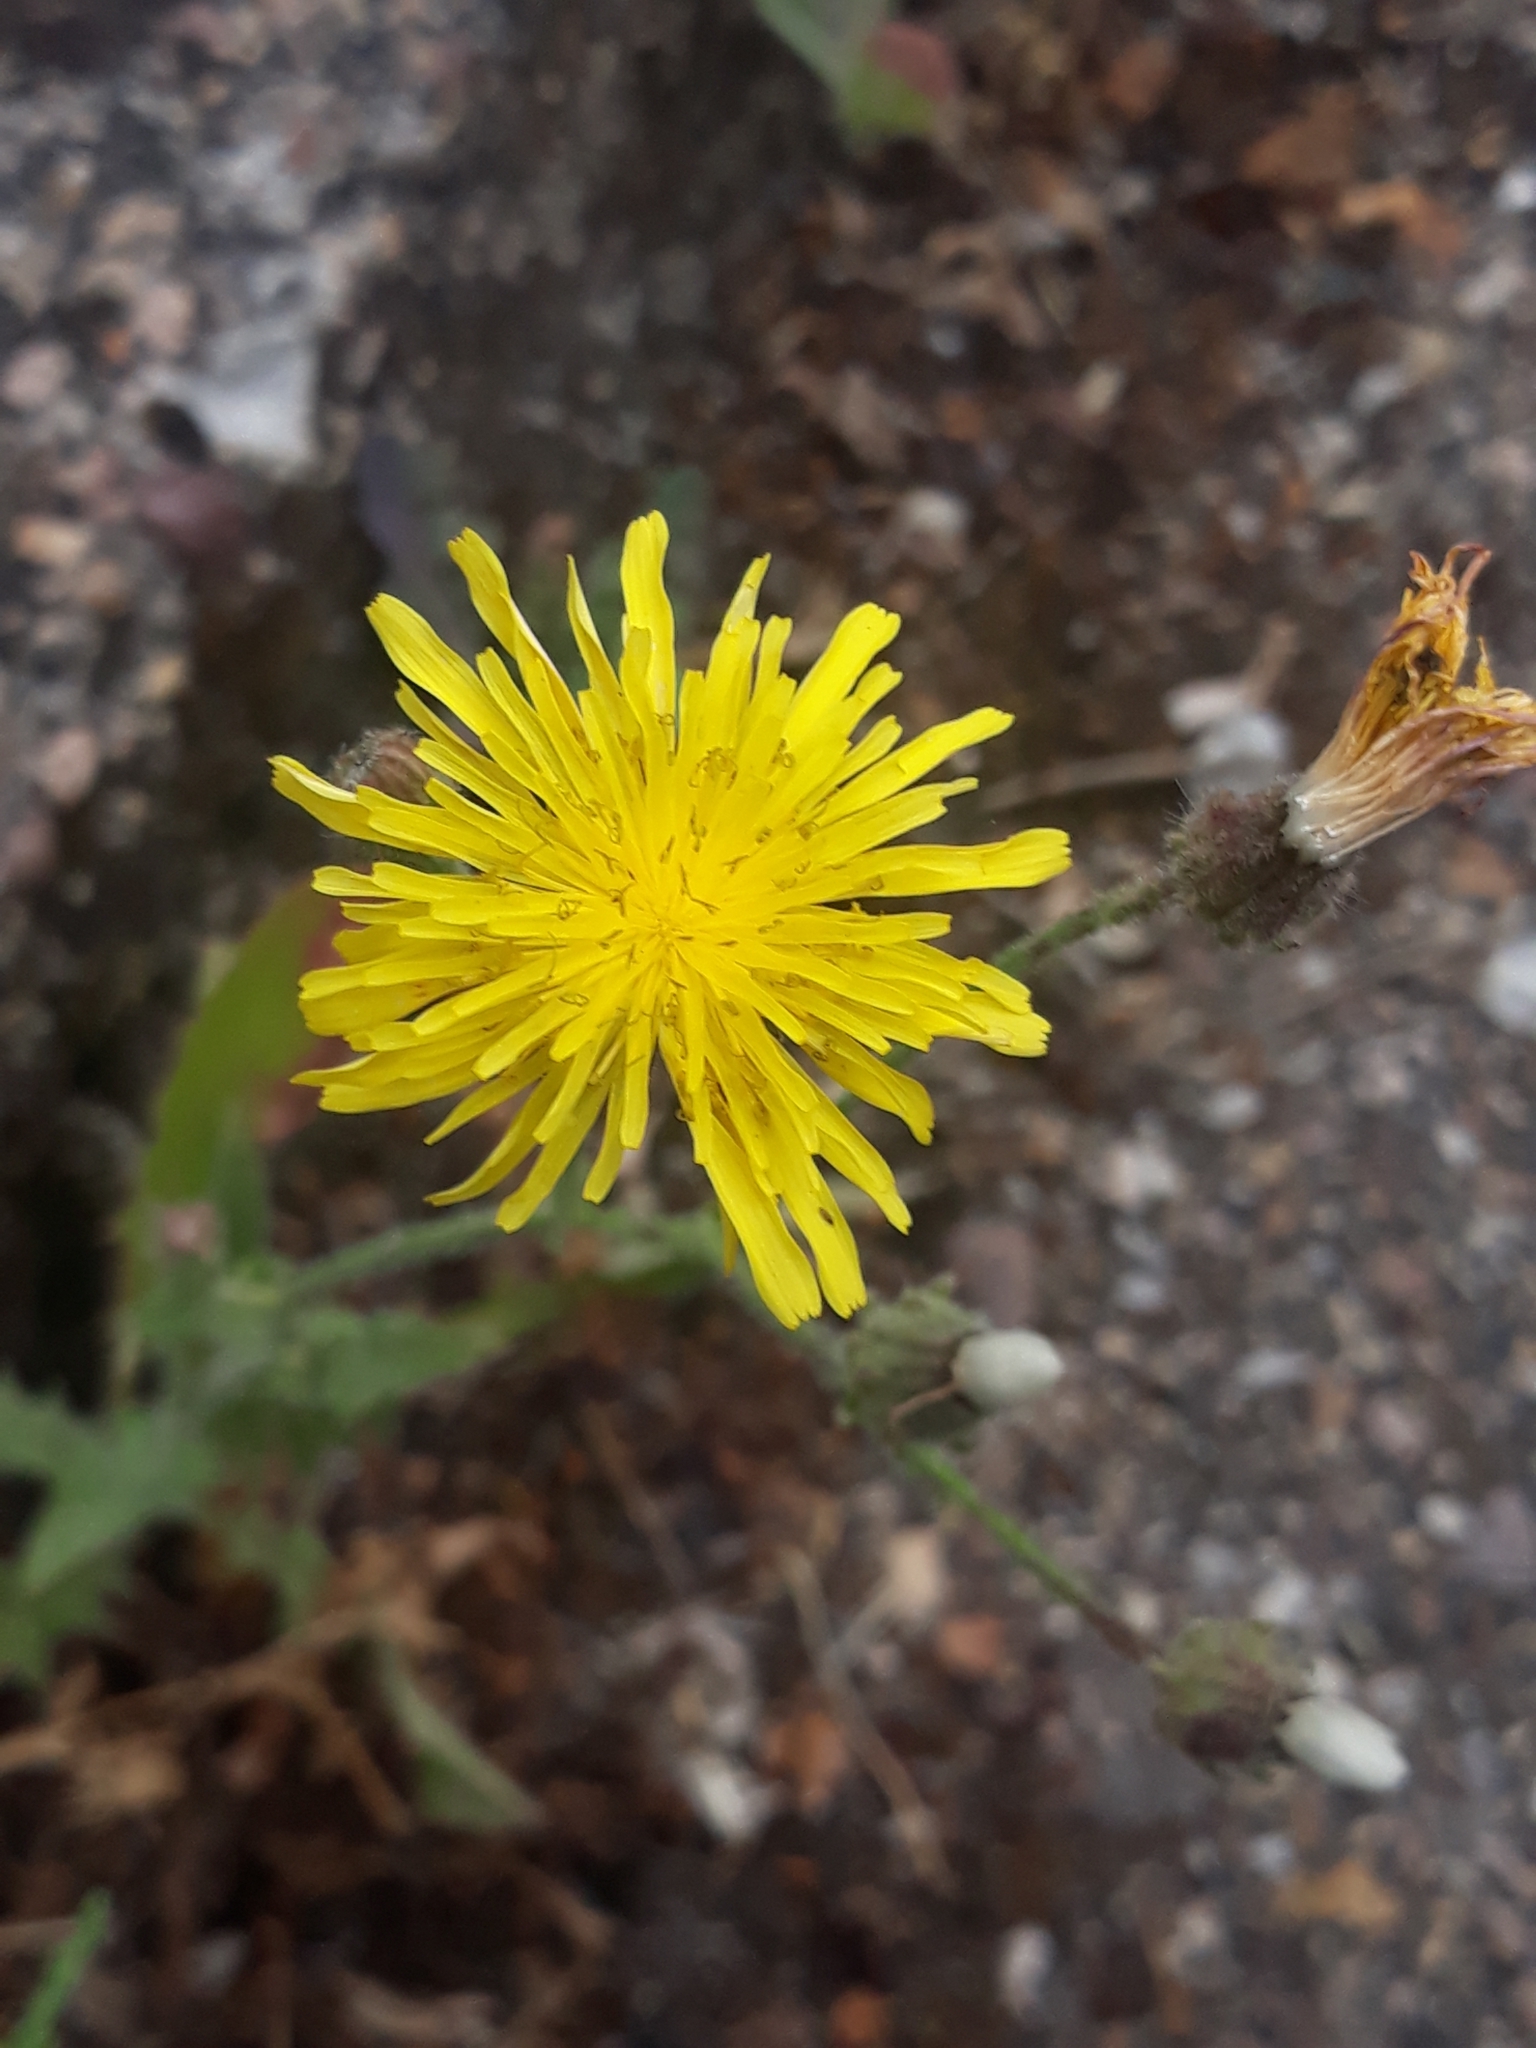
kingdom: Plantae
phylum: Tracheophyta
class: Magnoliopsida
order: Asterales
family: Asteraceae
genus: Crepis
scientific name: Crepis foetida
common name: Stinking hawk's-beard
